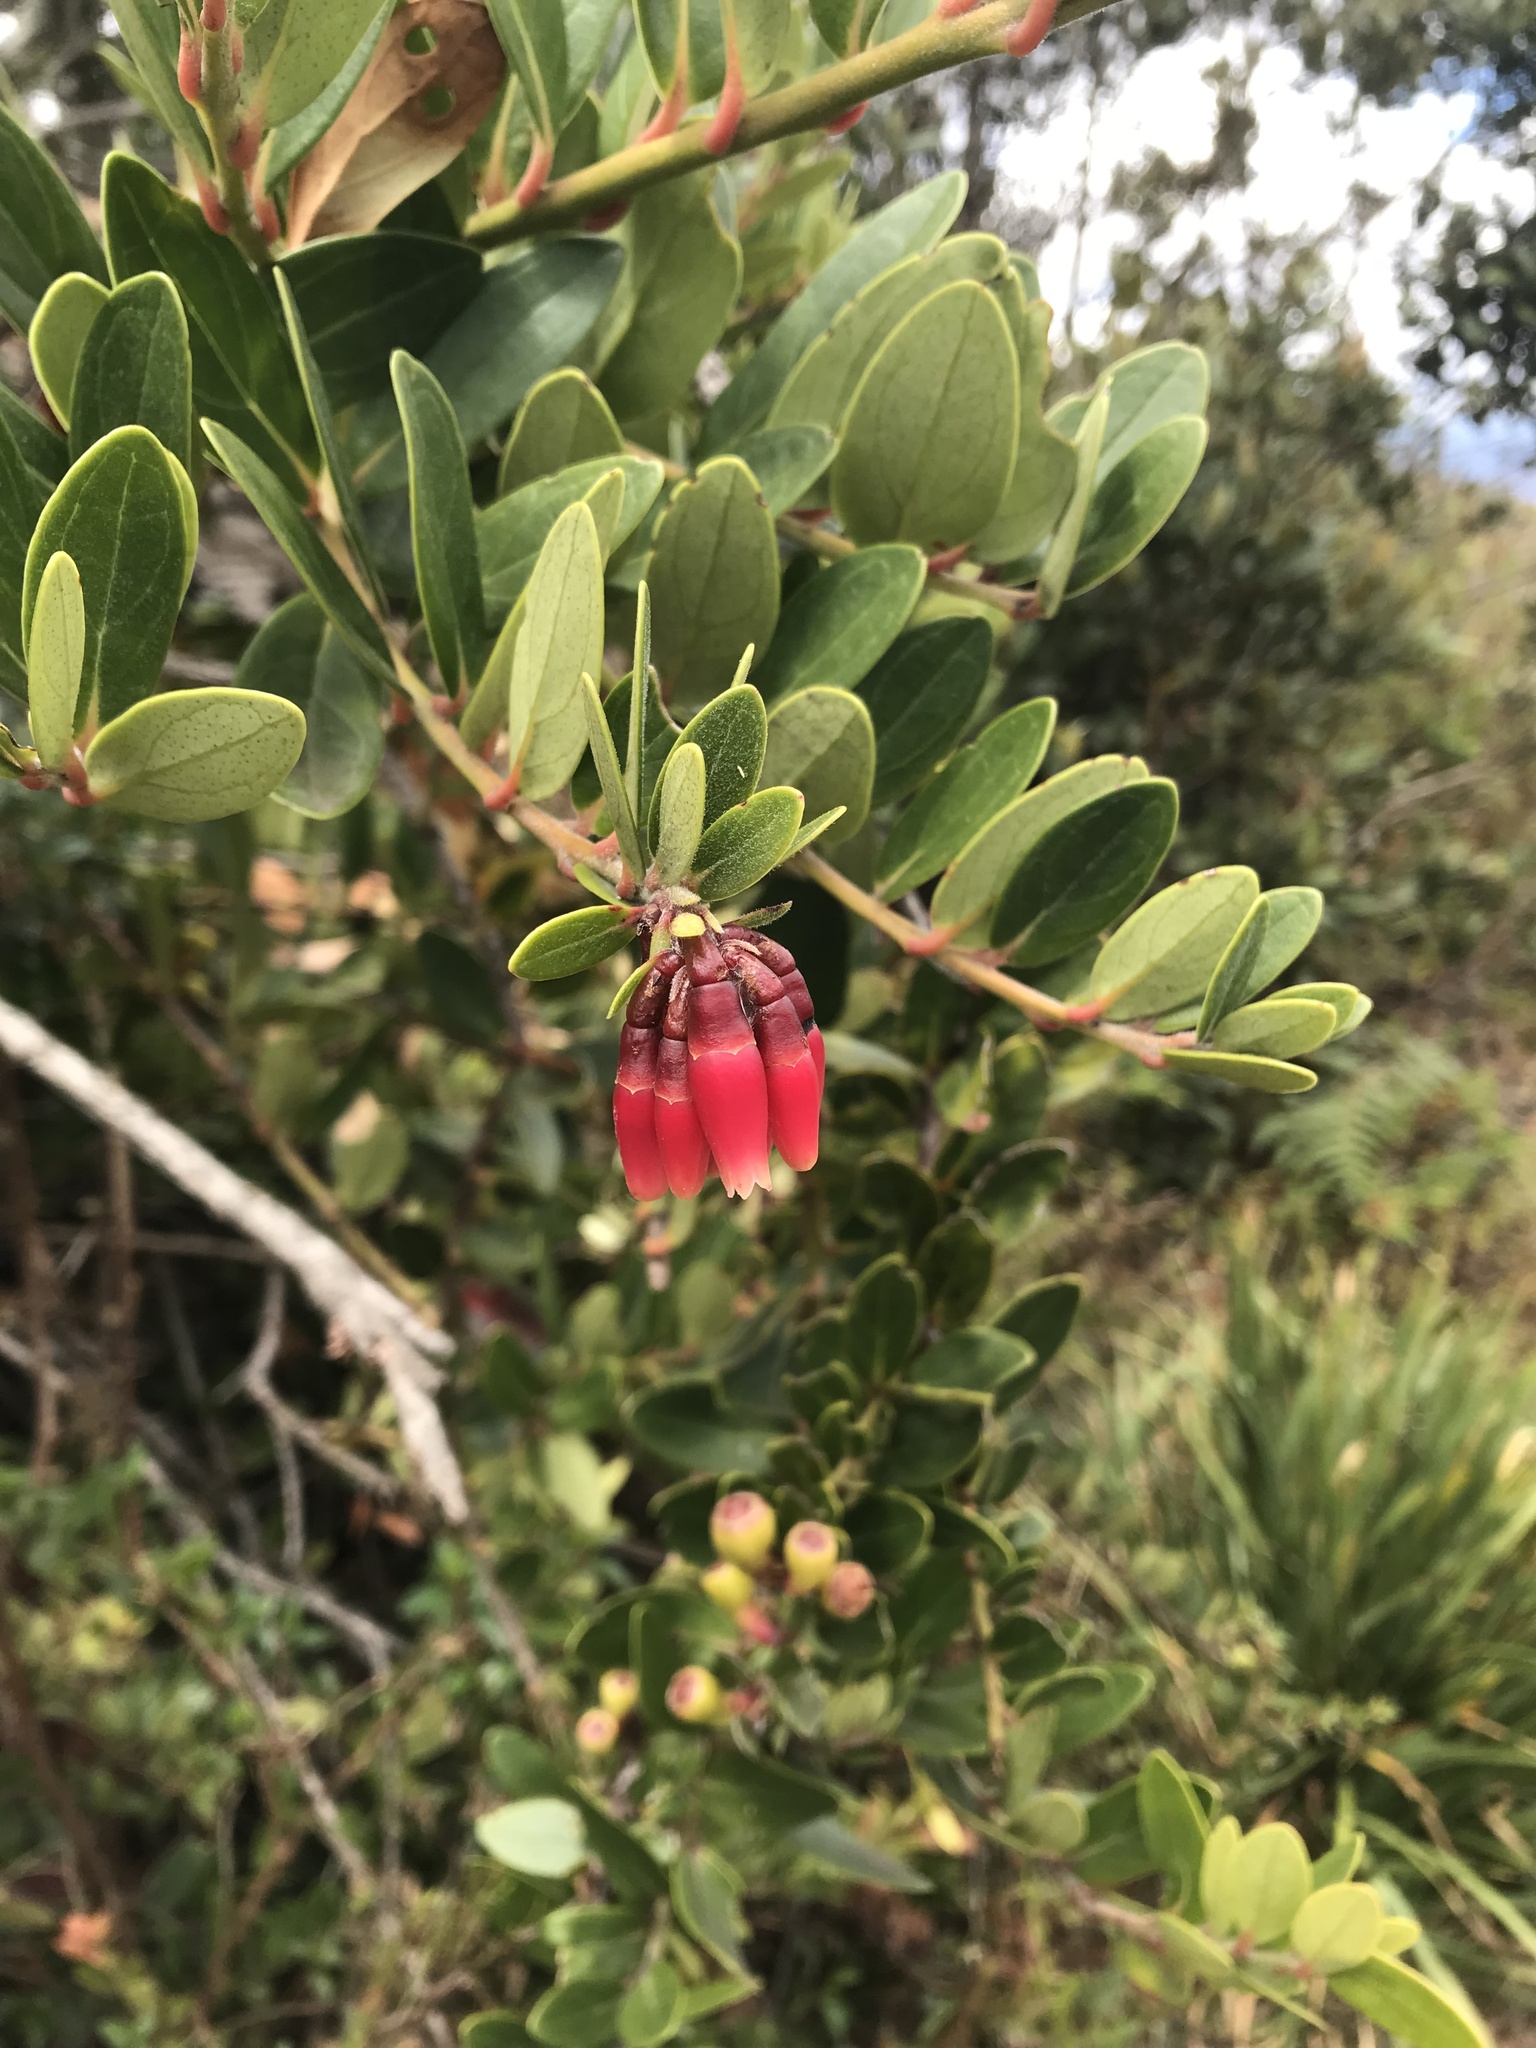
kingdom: Plantae
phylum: Tracheophyta
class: Magnoliopsida
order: Ericales
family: Ericaceae
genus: Macleania
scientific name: Macleania rupestris
